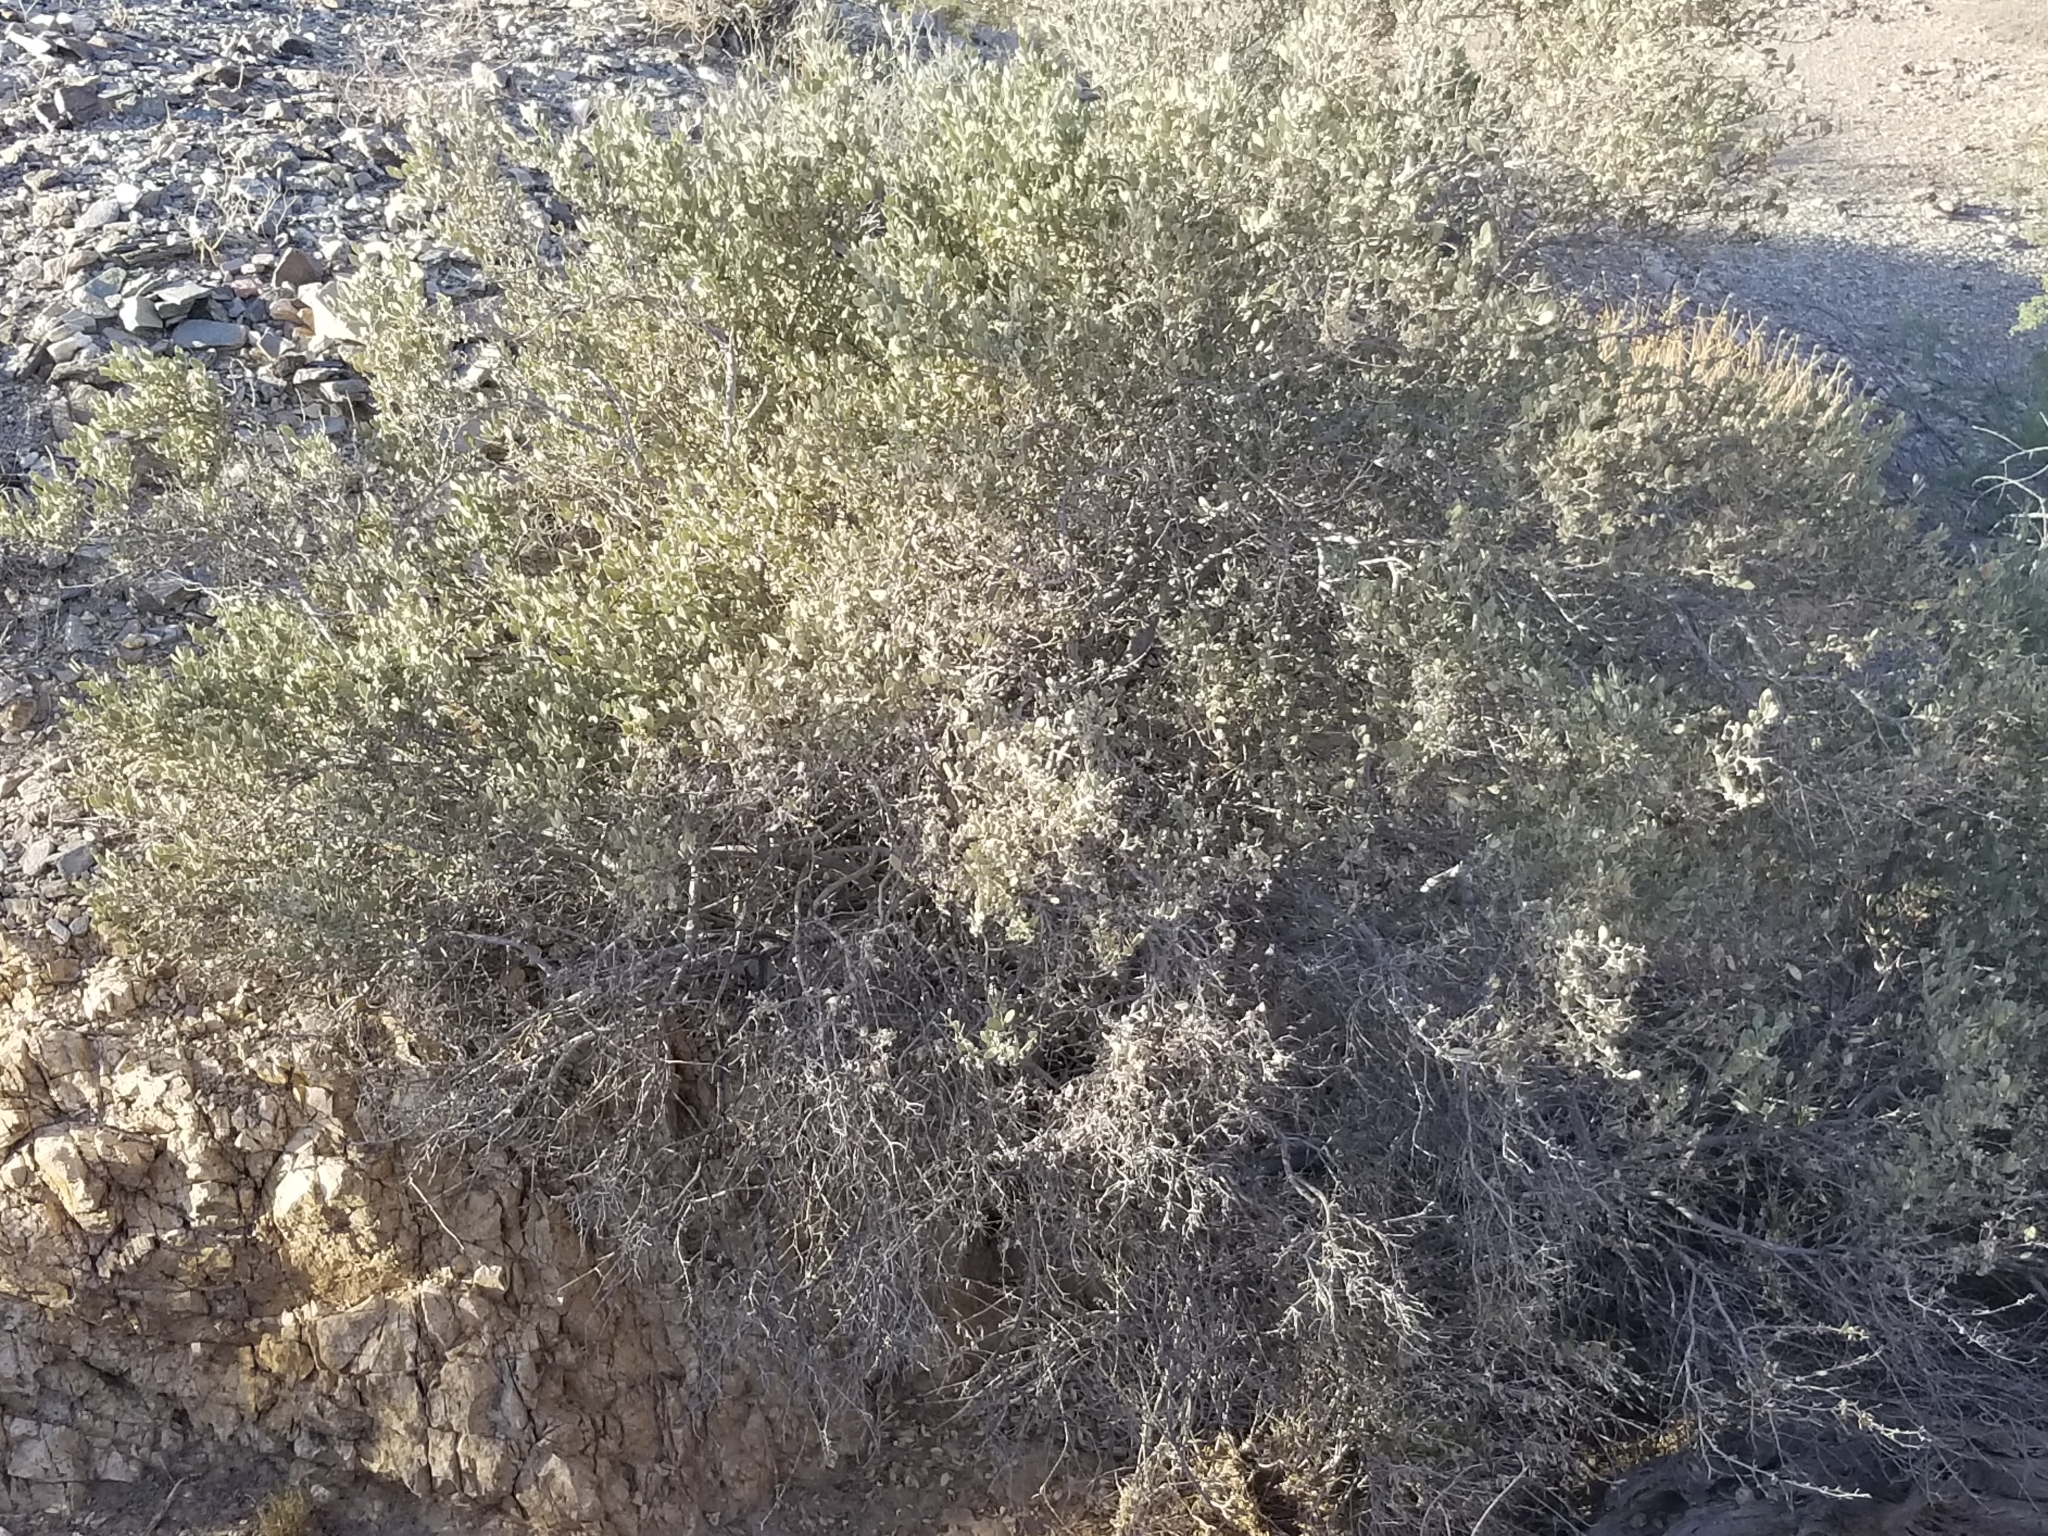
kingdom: Plantae
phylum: Tracheophyta
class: Magnoliopsida
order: Caryophyllales
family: Simmondsiaceae
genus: Simmondsia
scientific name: Simmondsia chinensis
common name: Jojoba
